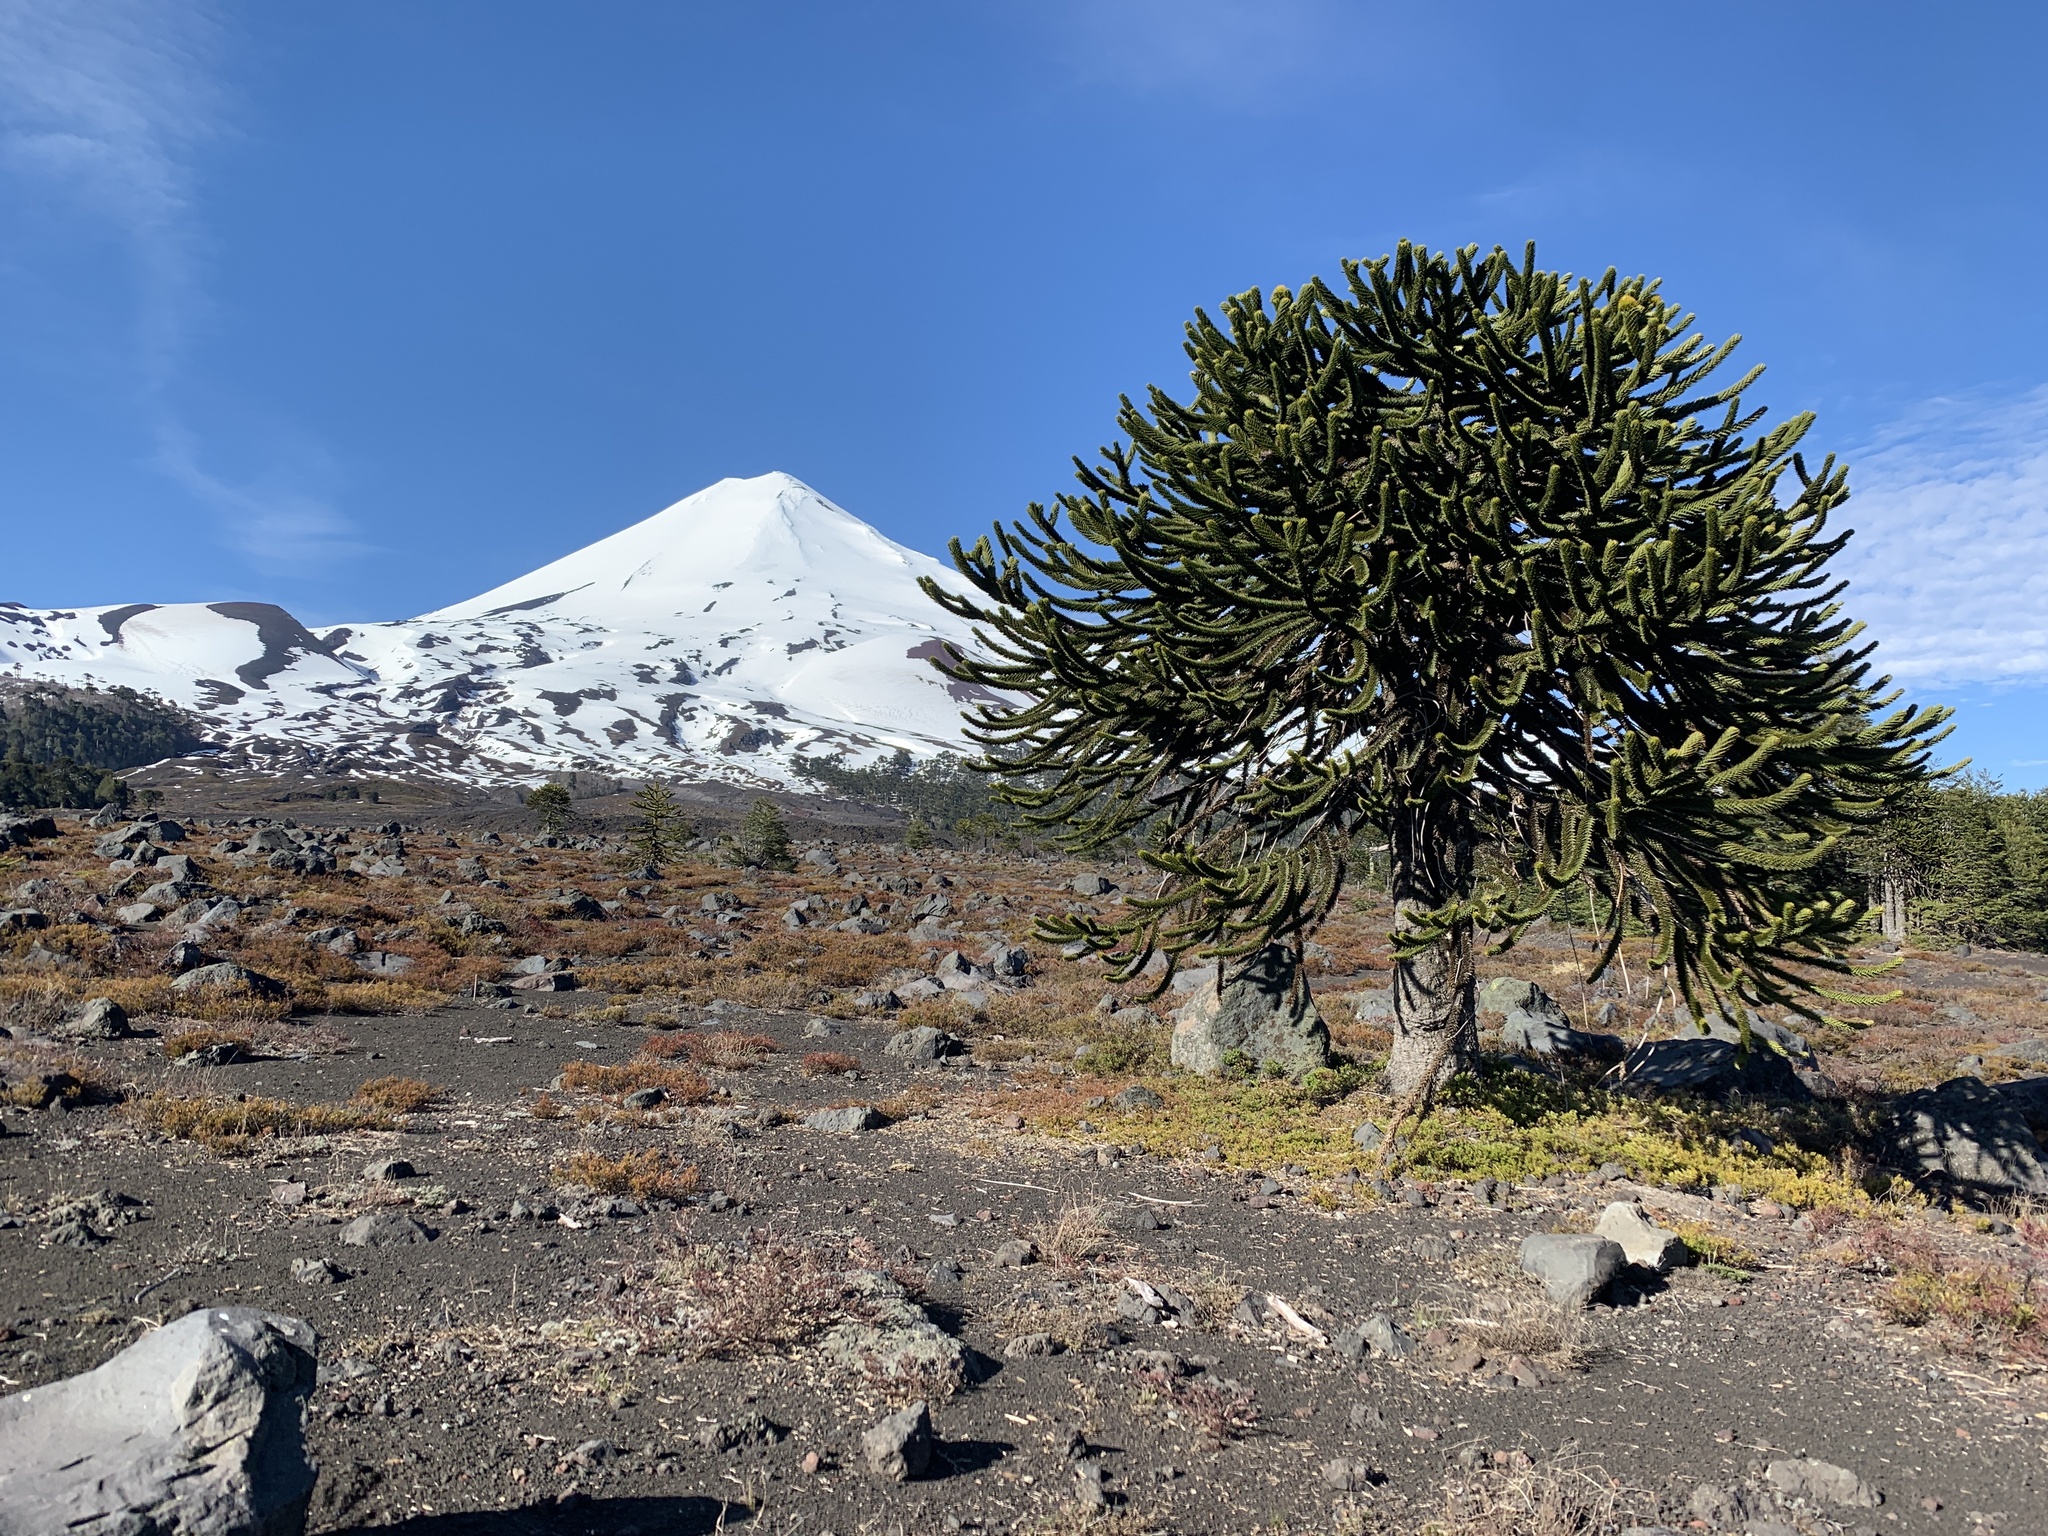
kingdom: Plantae
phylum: Tracheophyta
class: Pinopsida
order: Pinales
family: Araucariaceae
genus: Araucaria
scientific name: Araucaria araucana
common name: Monkey-puzzle
